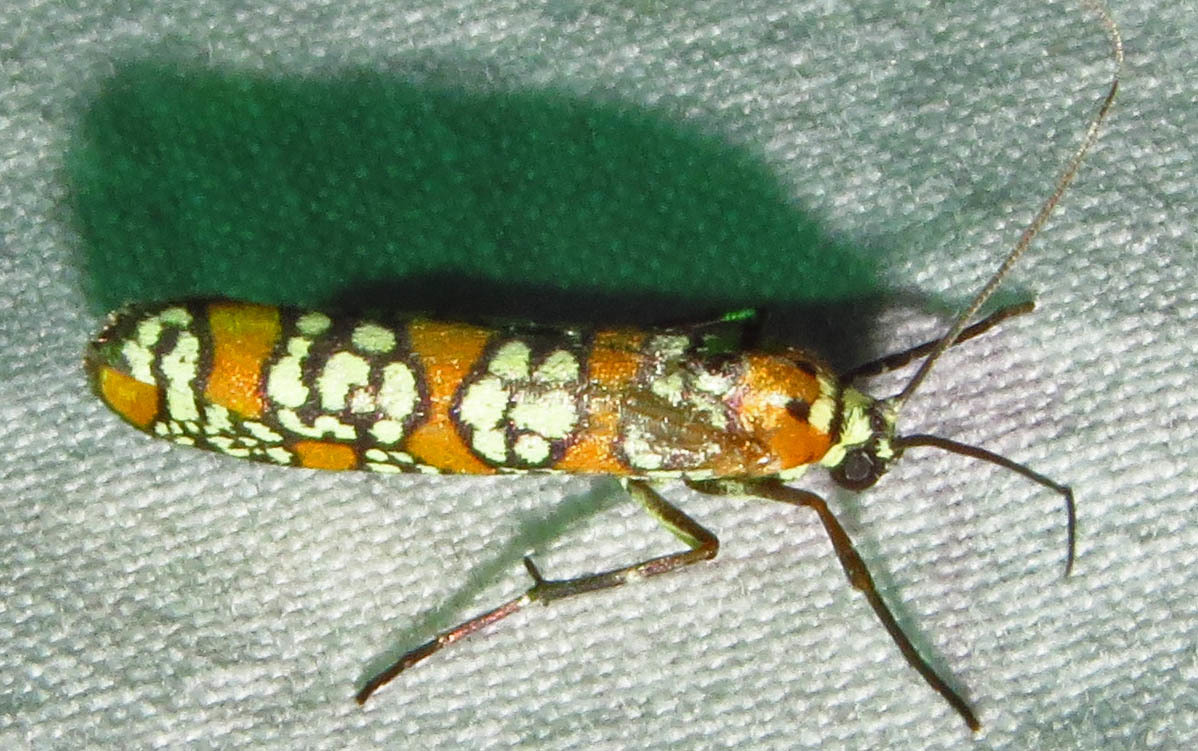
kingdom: Animalia
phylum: Arthropoda
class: Insecta
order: Lepidoptera
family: Attevidae
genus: Atteva
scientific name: Atteva punctella
